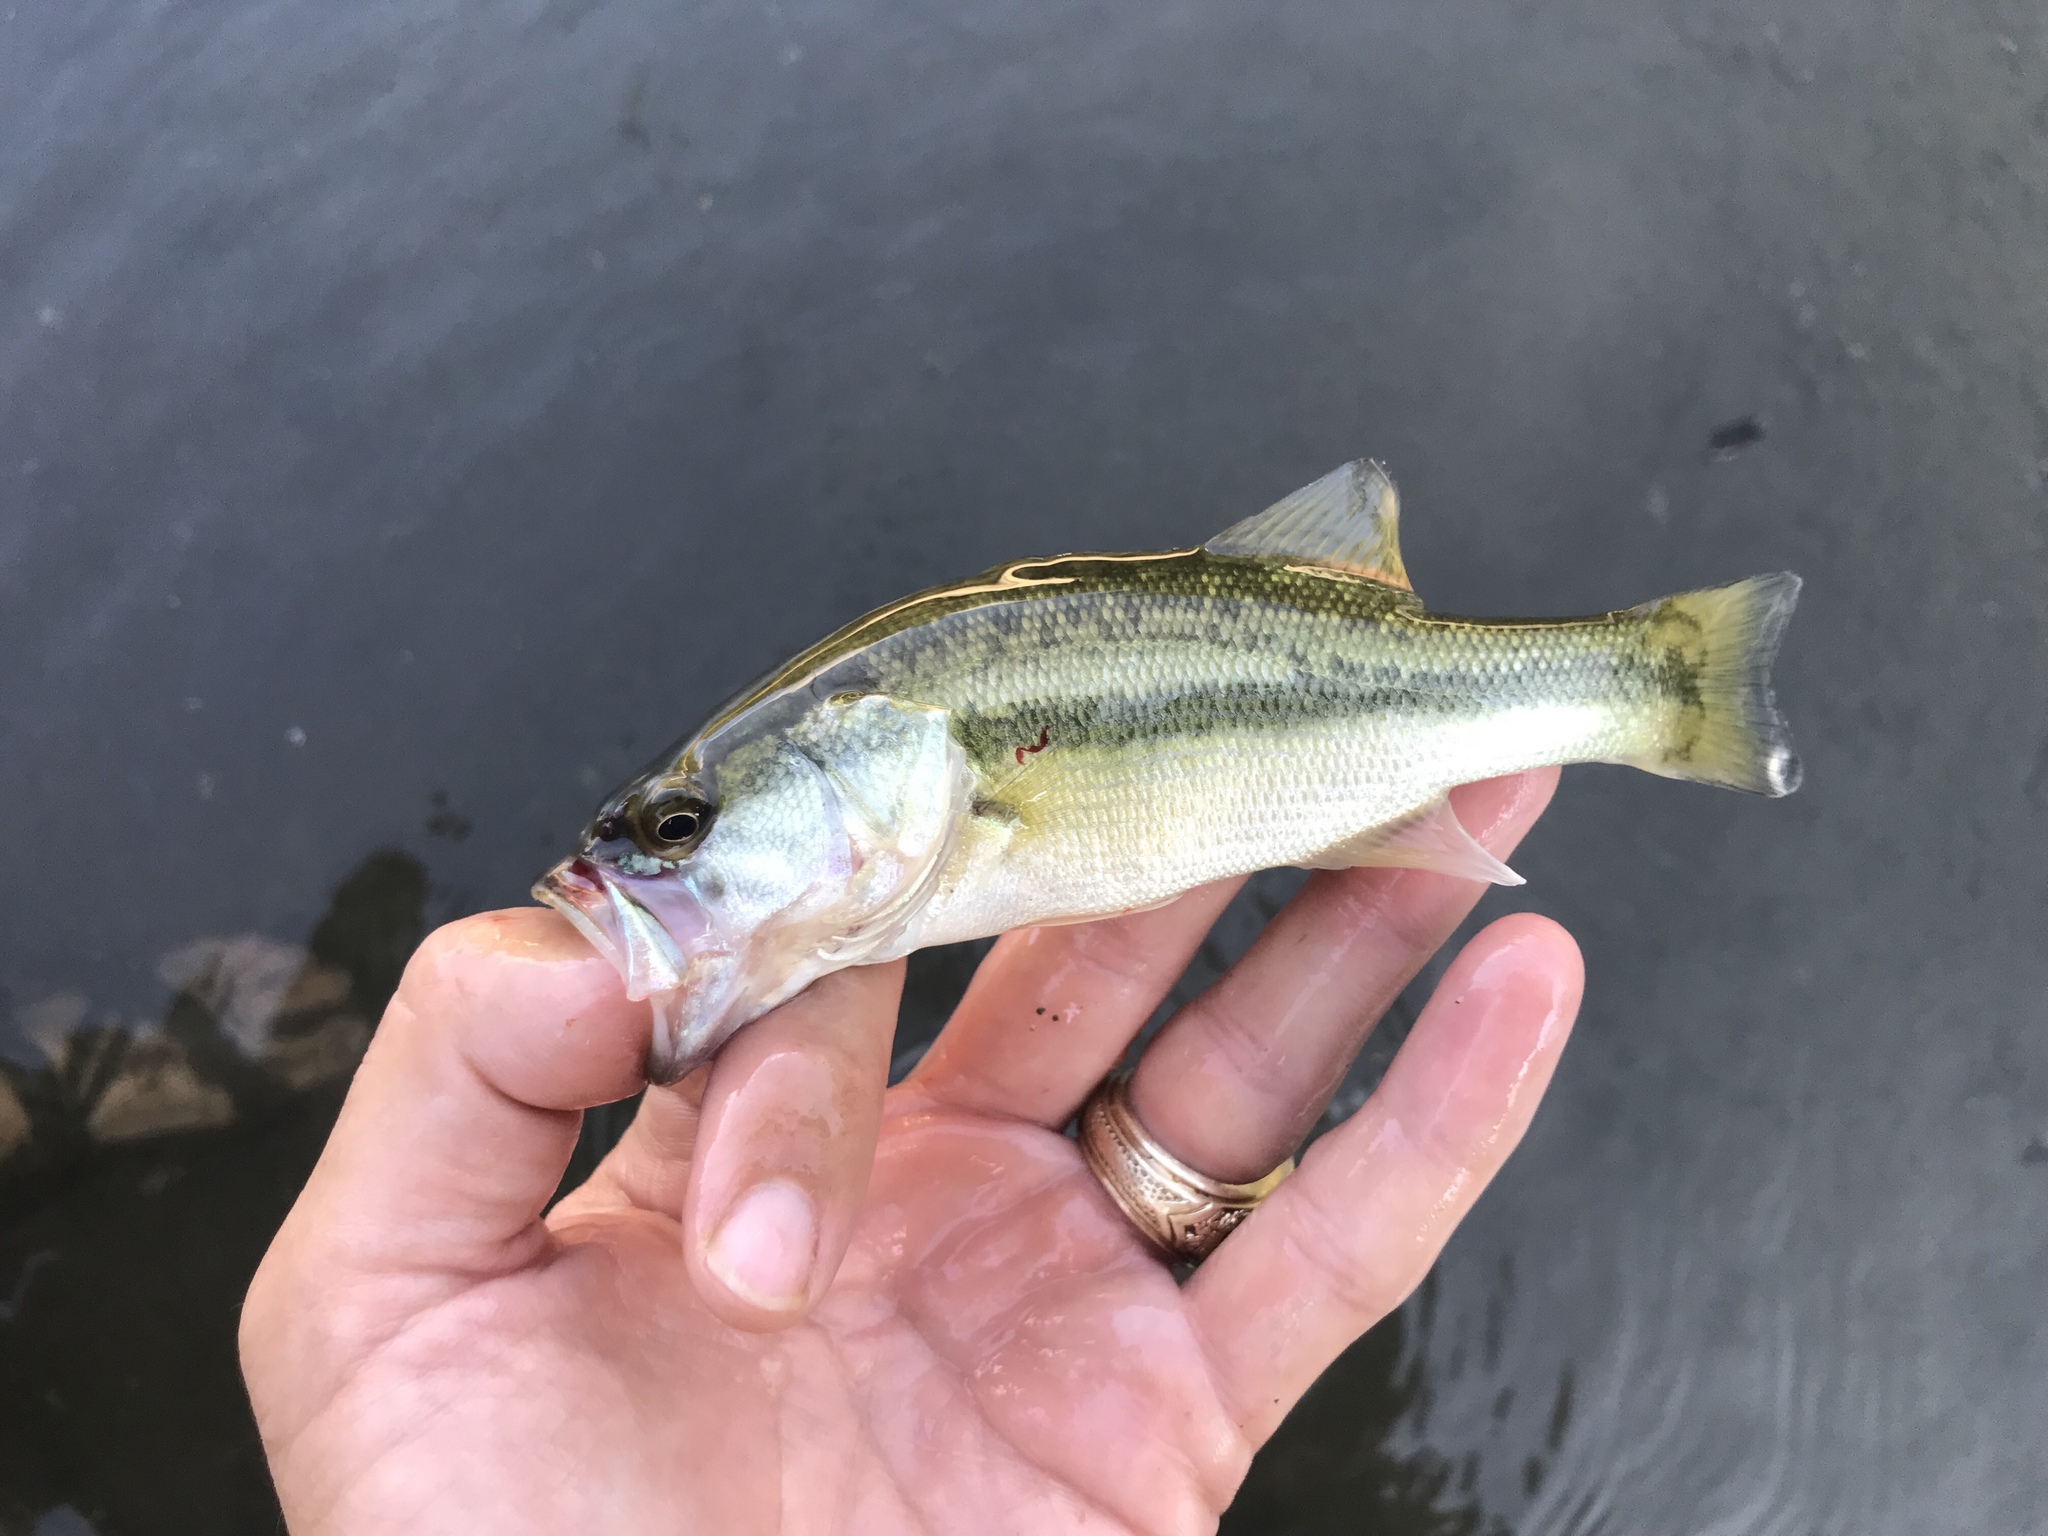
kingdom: Animalia
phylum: Chordata
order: Perciformes
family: Centrarchidae
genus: Micropterus
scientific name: Micropterus
